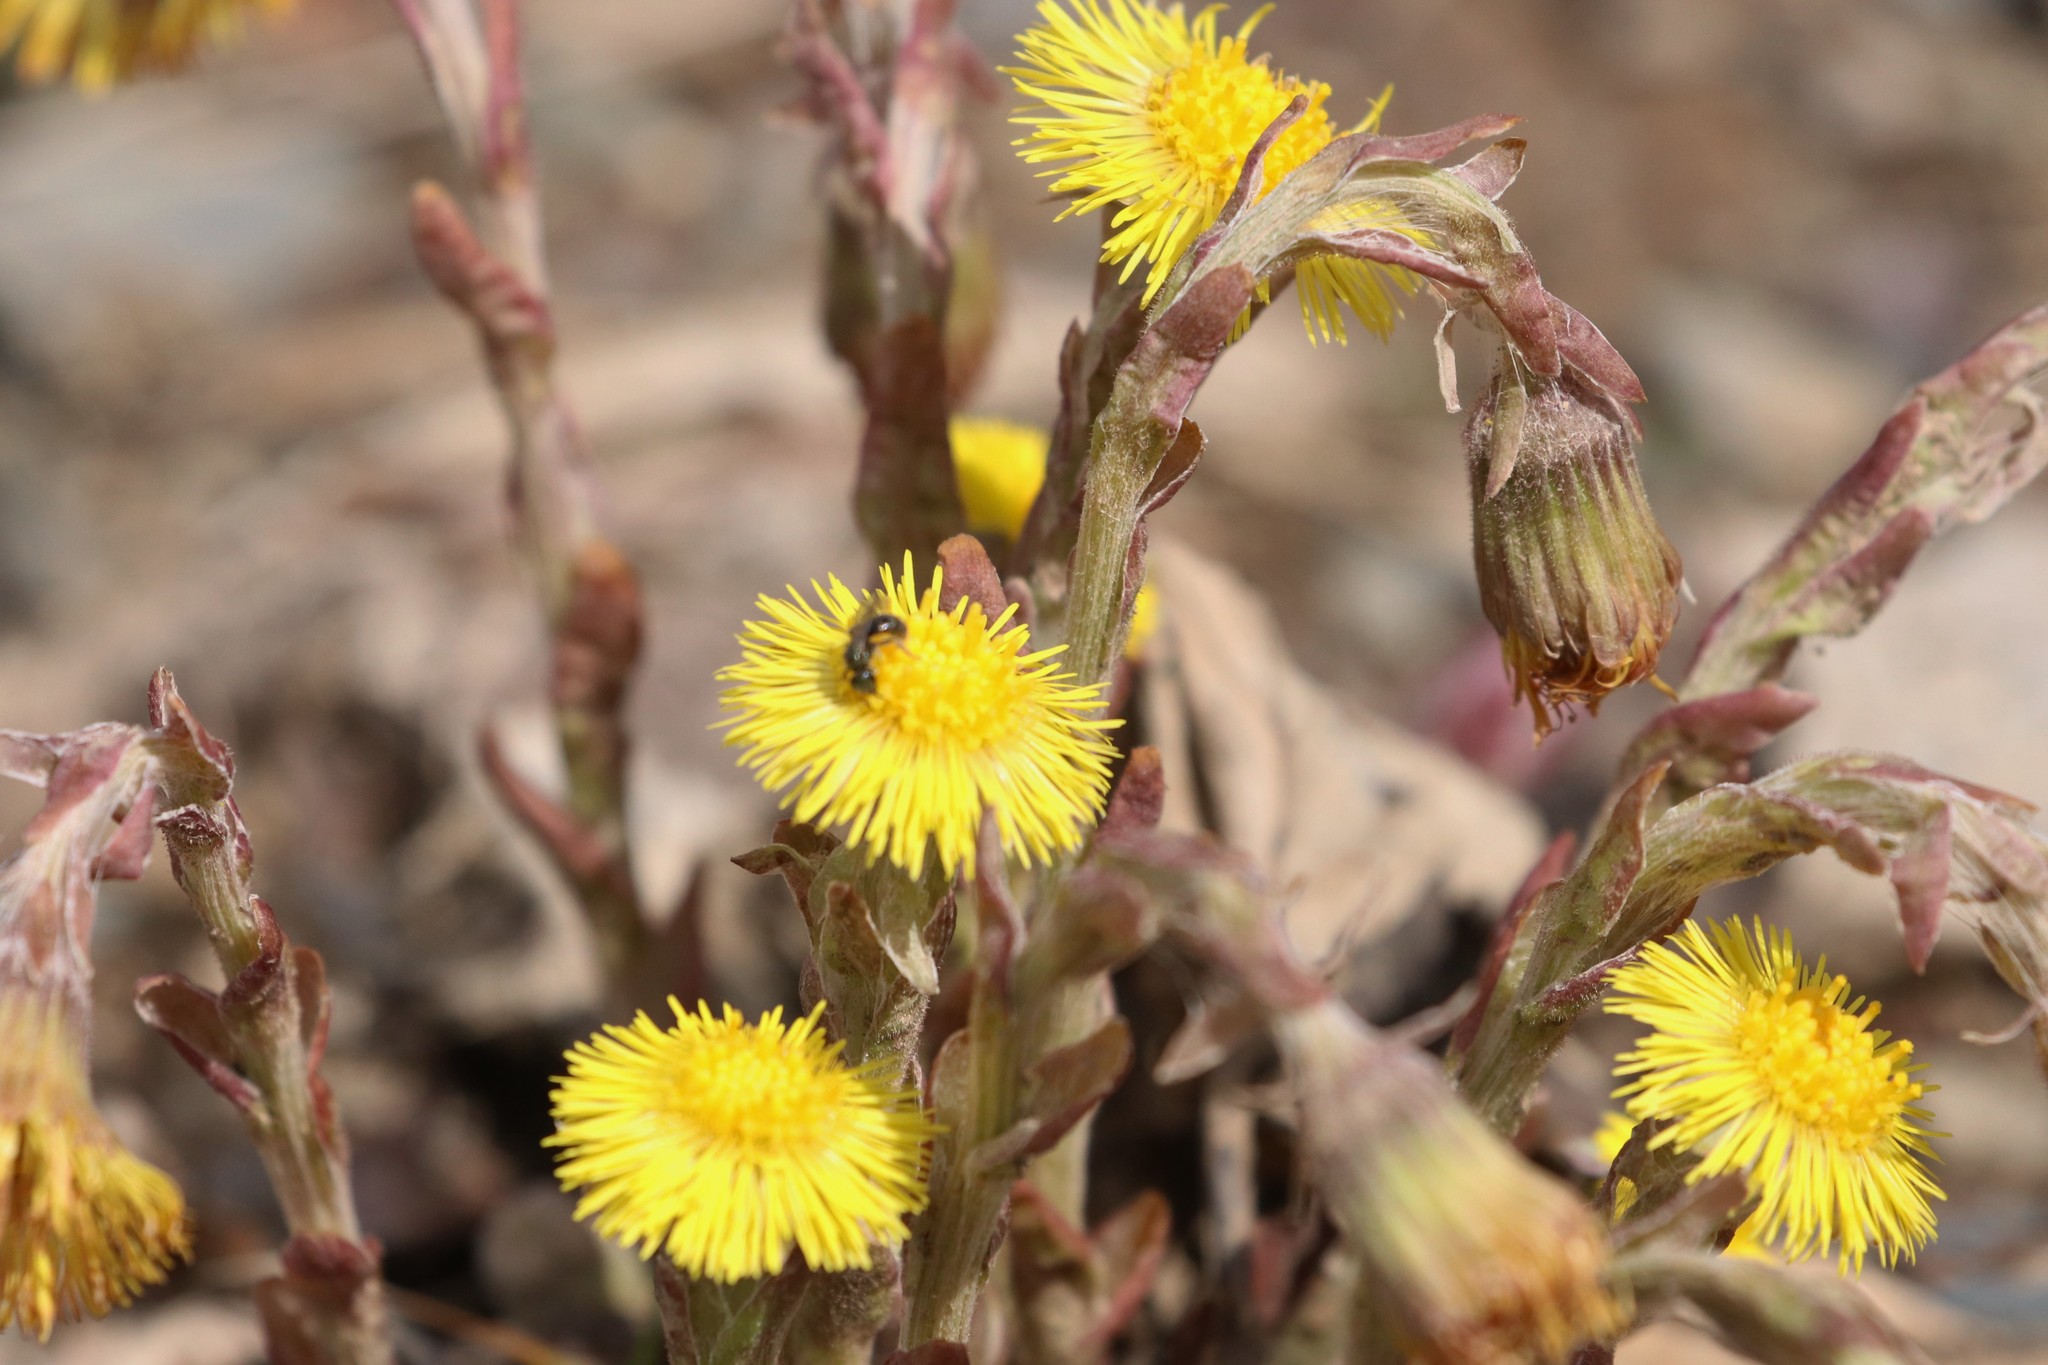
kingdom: Plantae
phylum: Tracheophyta
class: Magnoliopsida
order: Asterales
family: Asteraceae
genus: Tussilago
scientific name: Tussilago farfara
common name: Coltsfoot
